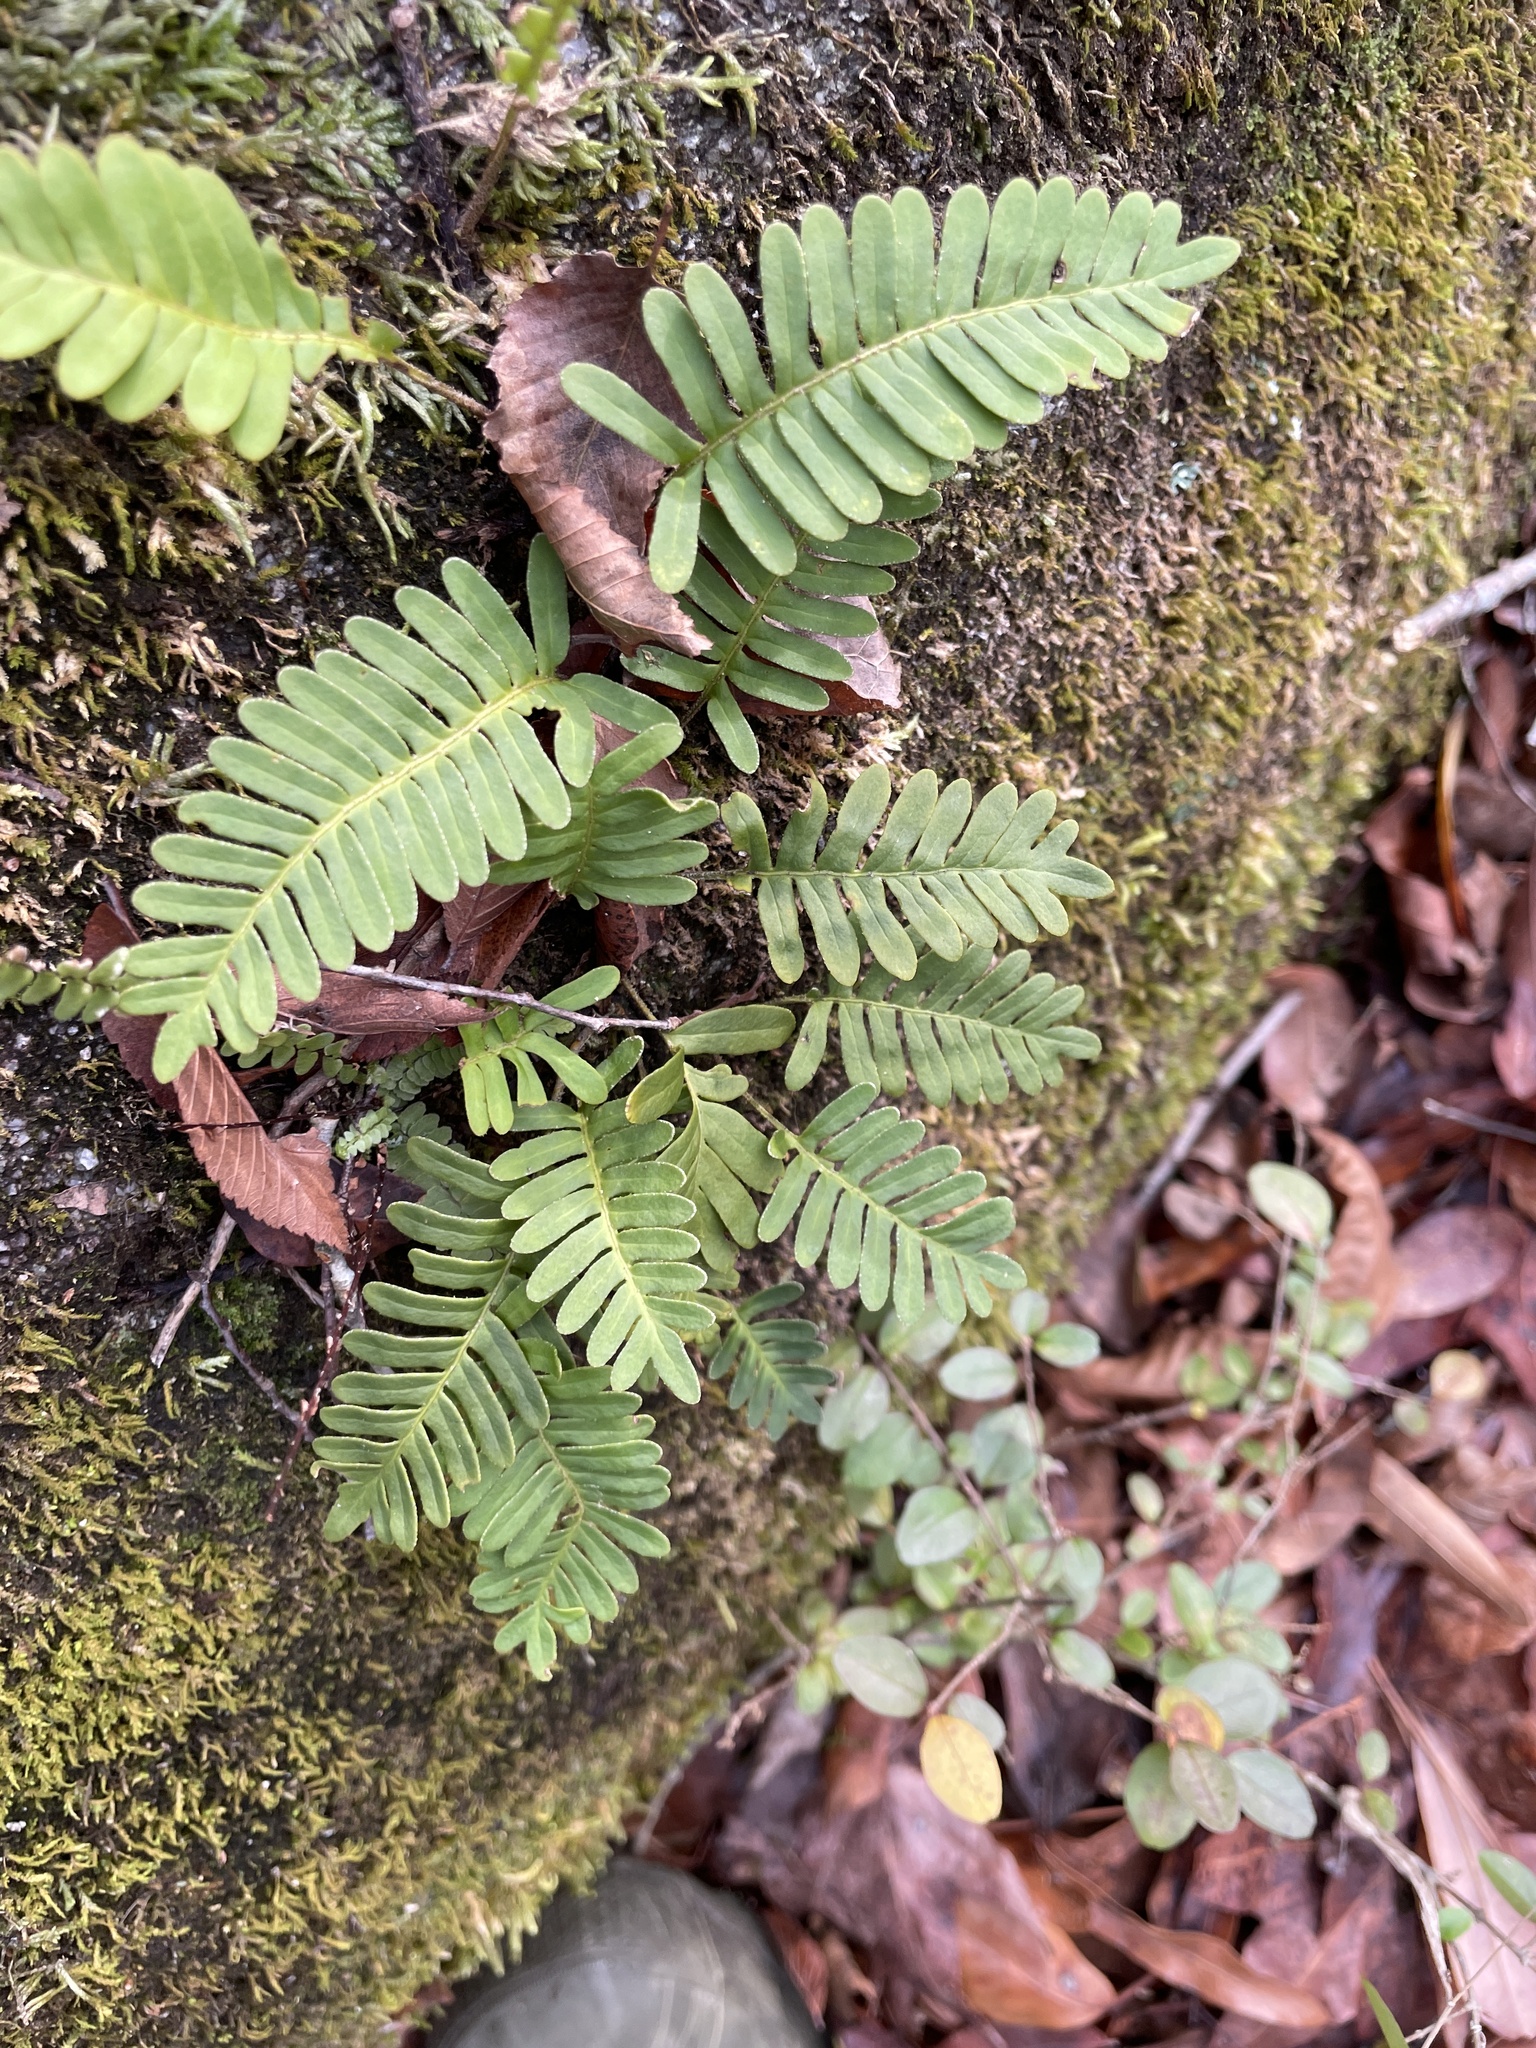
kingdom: Plantae
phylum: Tracheophyta
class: Polypodiopsida
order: Polypodiales
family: Polypodiaceae
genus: Pleopeltis
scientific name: Pleopeltis michauxiana
